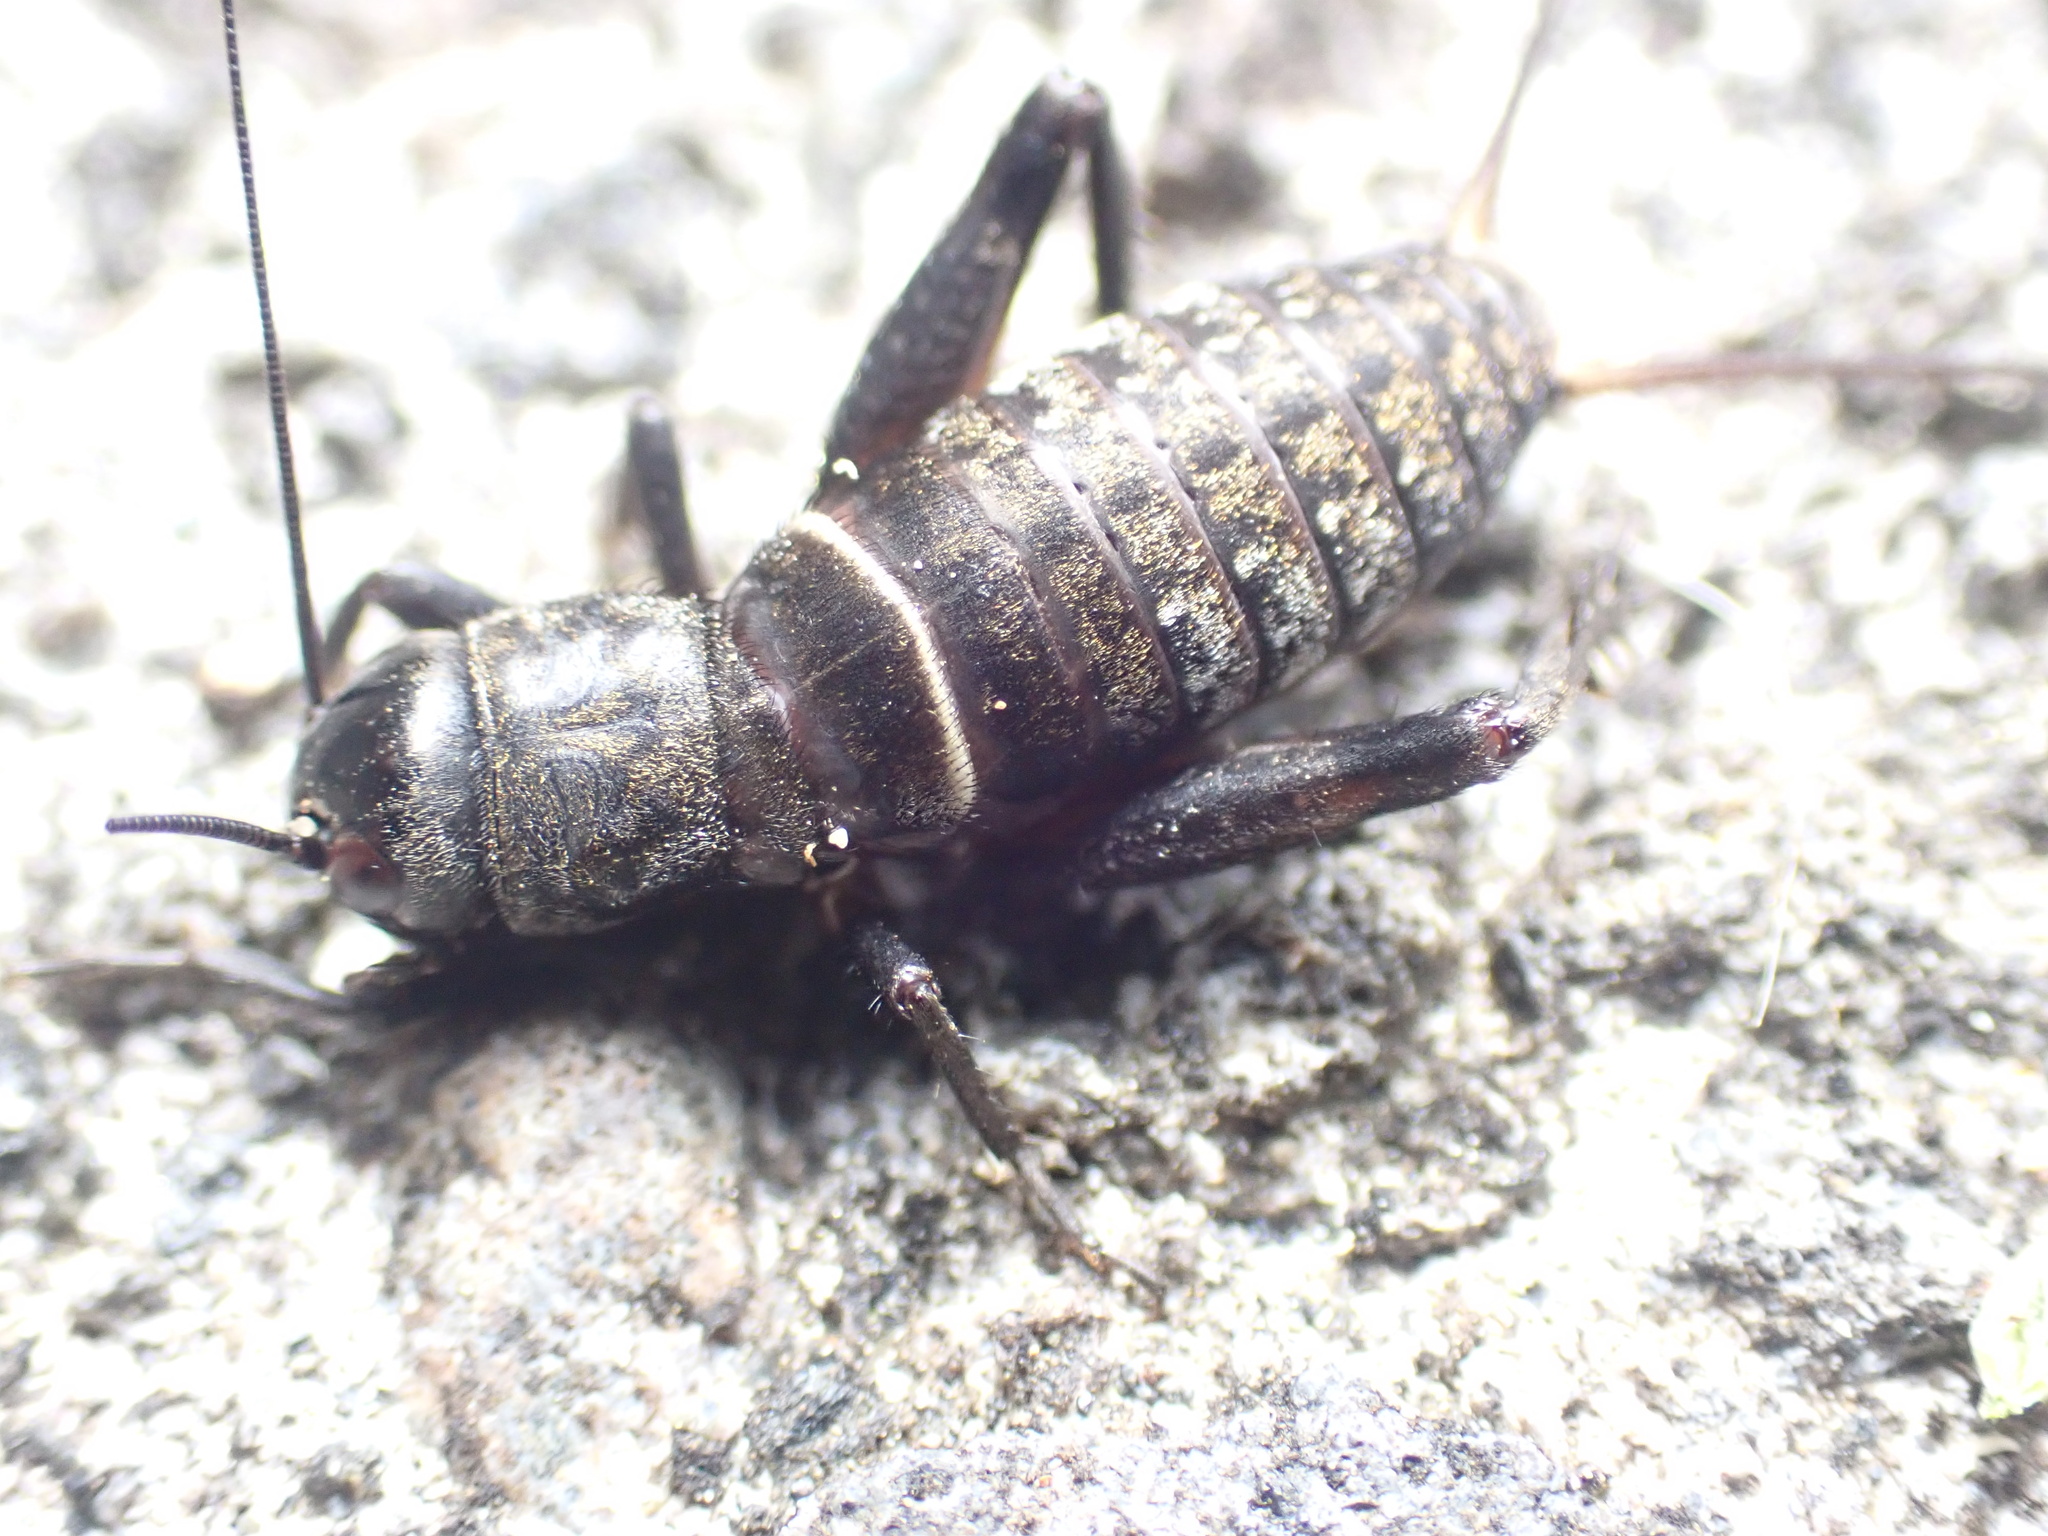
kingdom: Animalia
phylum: Arthropoda
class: Insecta
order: Orthoptera
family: Gryllidae
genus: Teleogryllus
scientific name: Teleogryllus commodus
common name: Black field cricket
